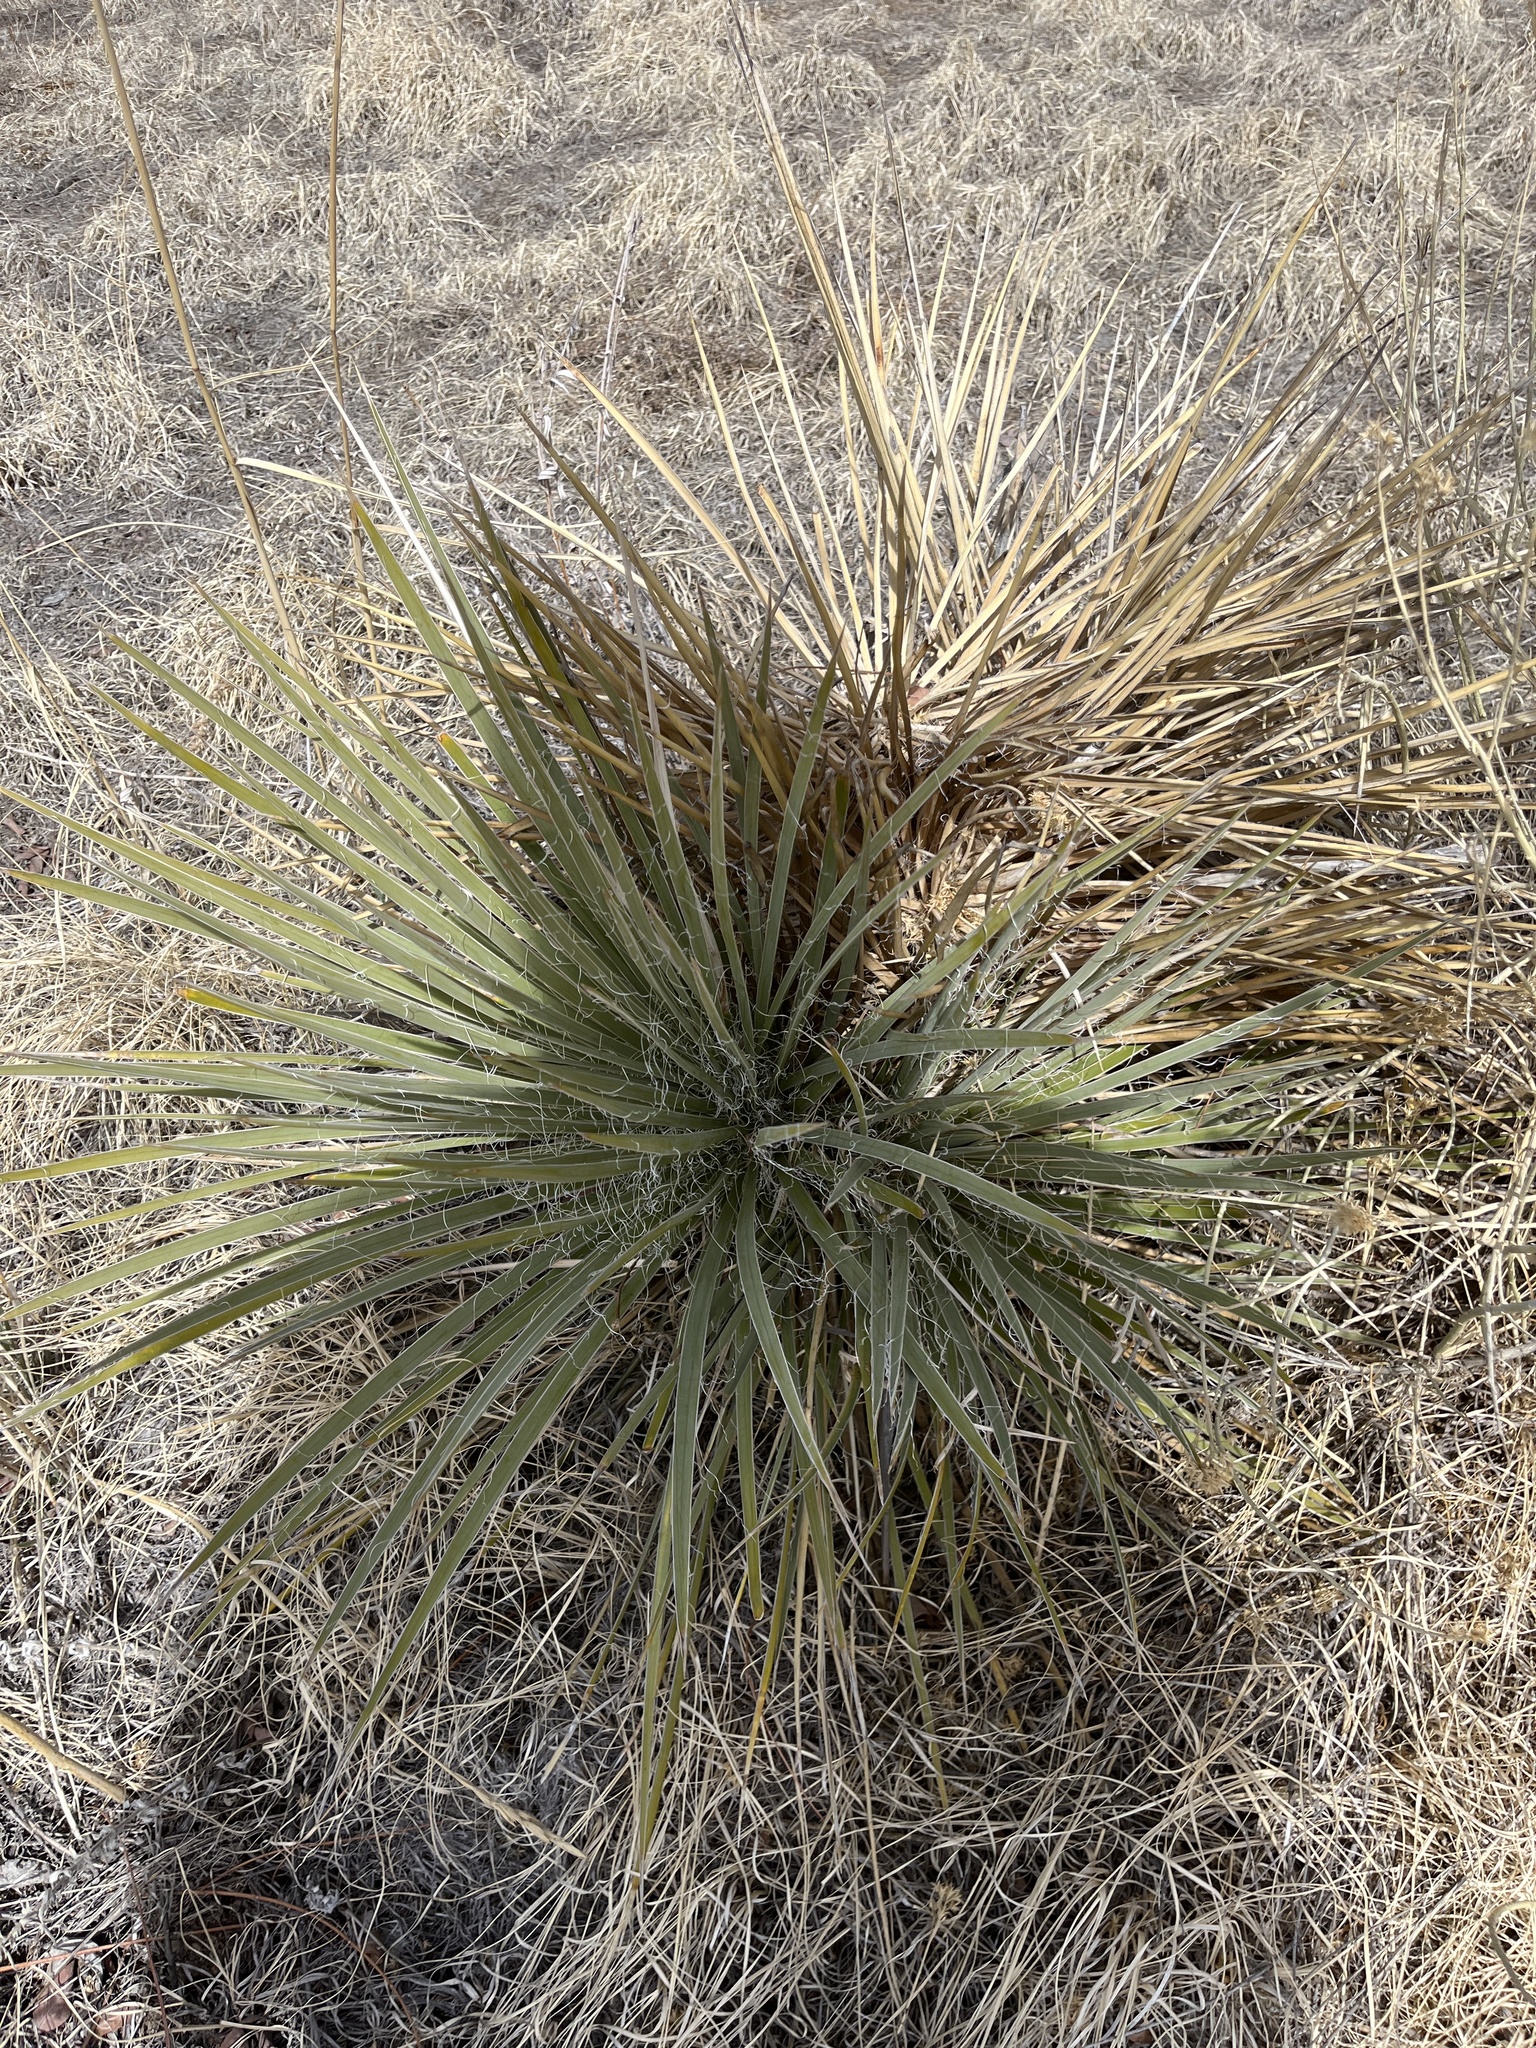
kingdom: Plantae
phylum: Tracheophyta
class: Liliopsida
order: Asparagales
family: Asparagaceae
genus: Yucca
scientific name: Yucca glauca
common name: Great plains yucca
